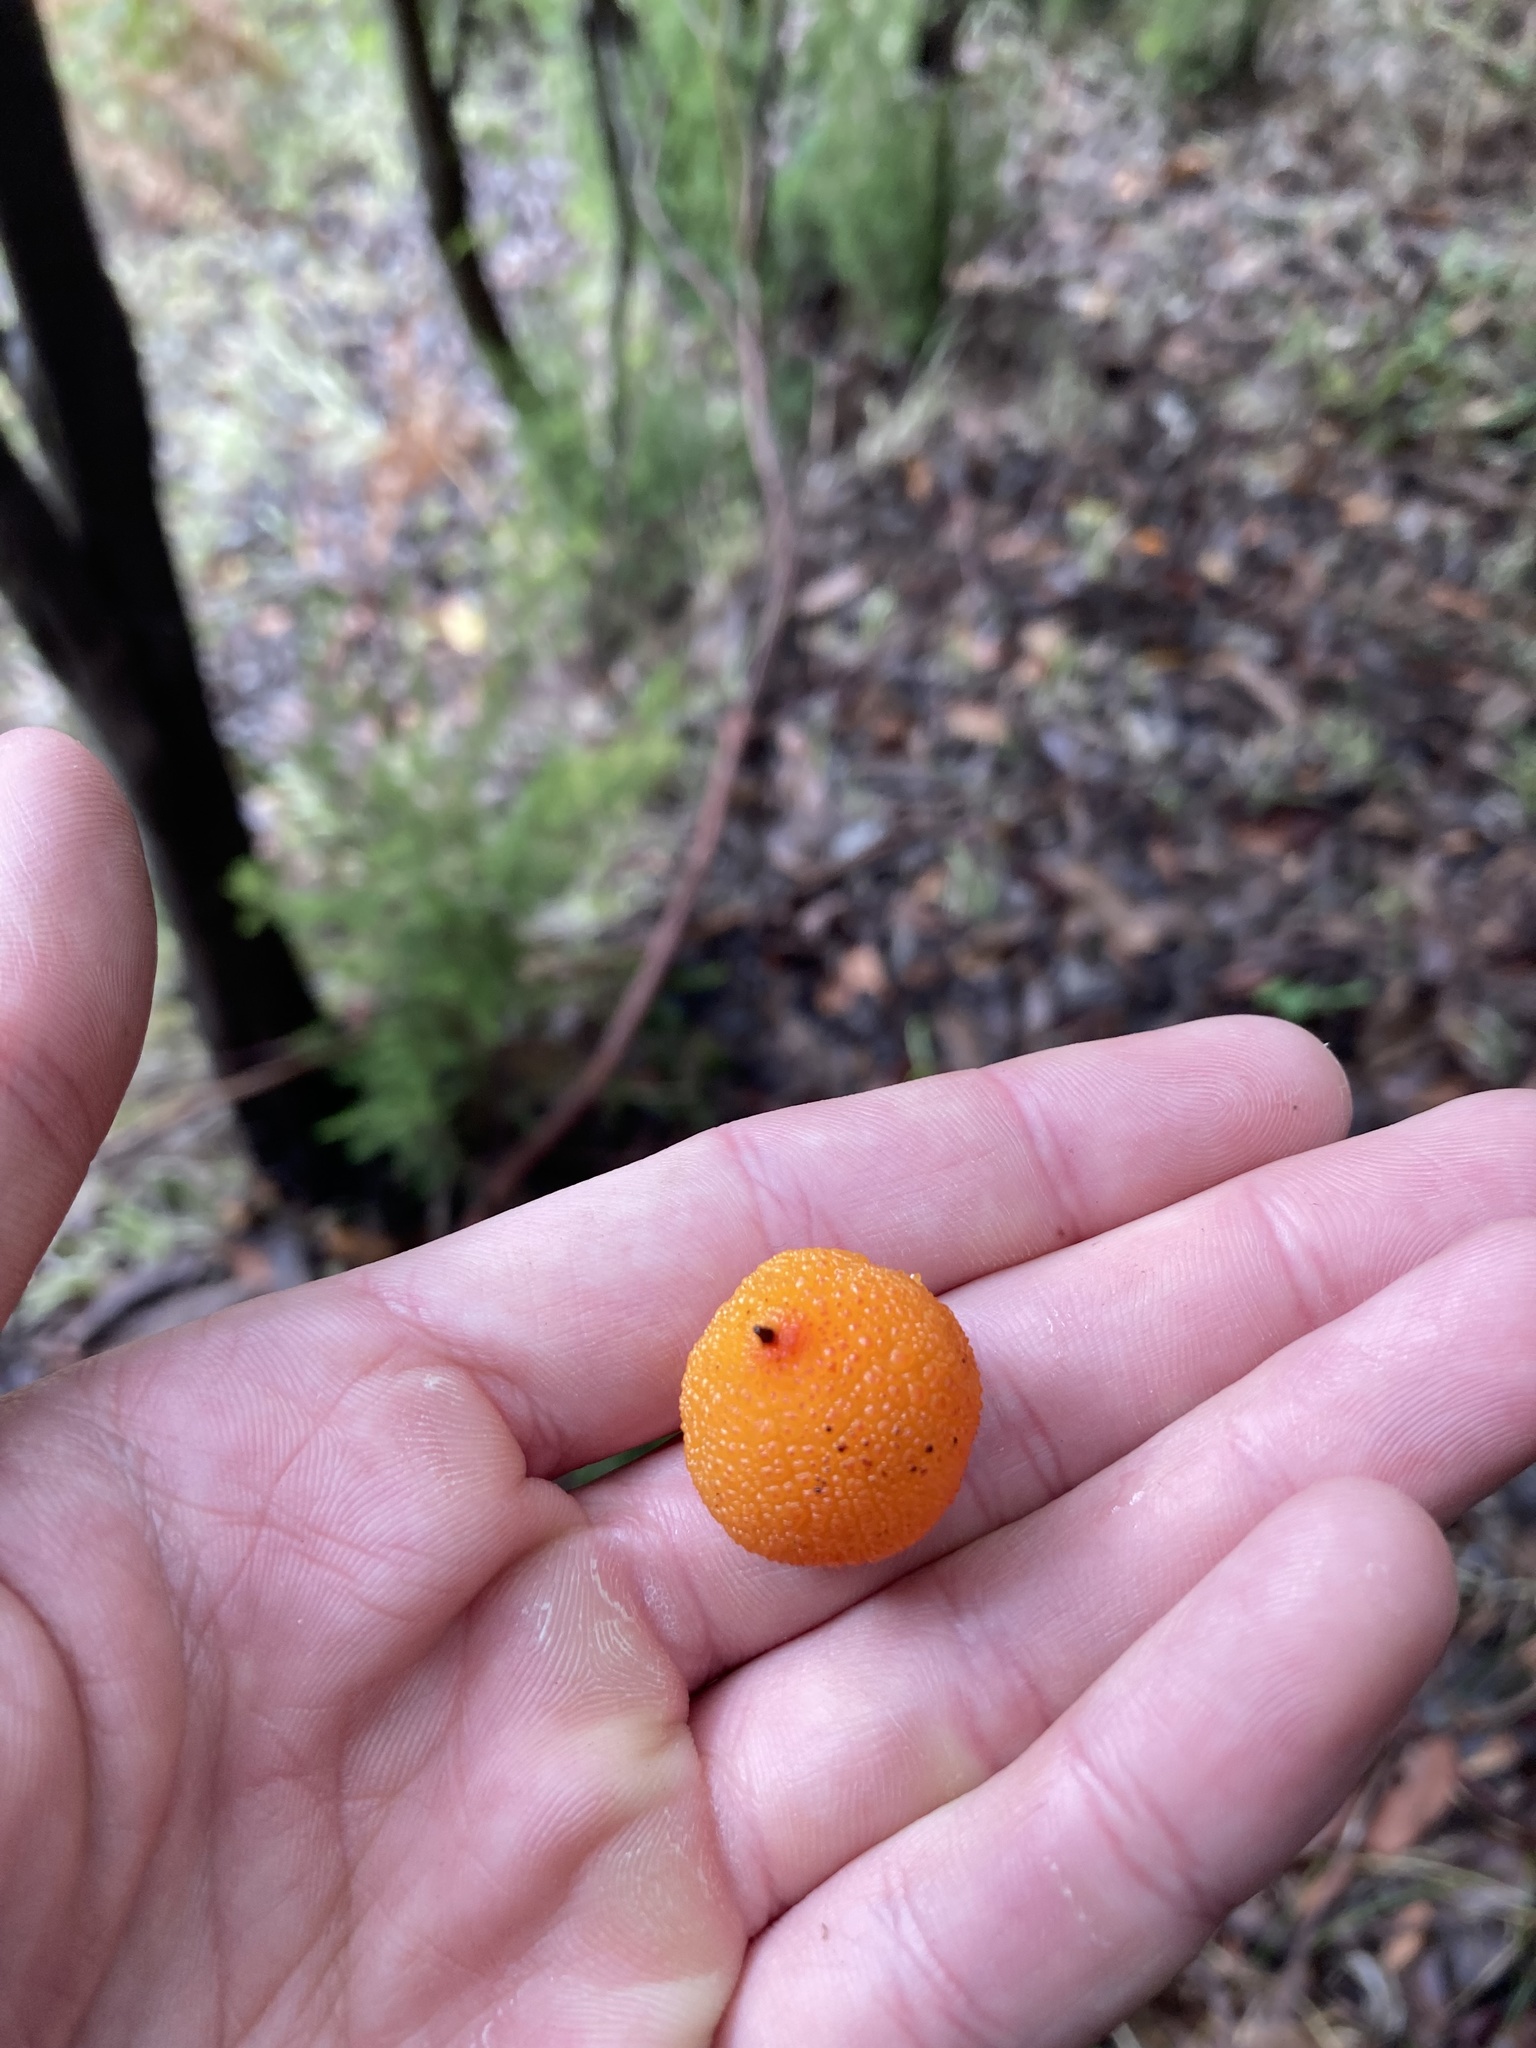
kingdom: Plantae
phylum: Tracheophyta
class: Magnoliopsida
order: Ericales
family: Ericaceae
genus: Arbutus
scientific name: Arbutus canariensis
